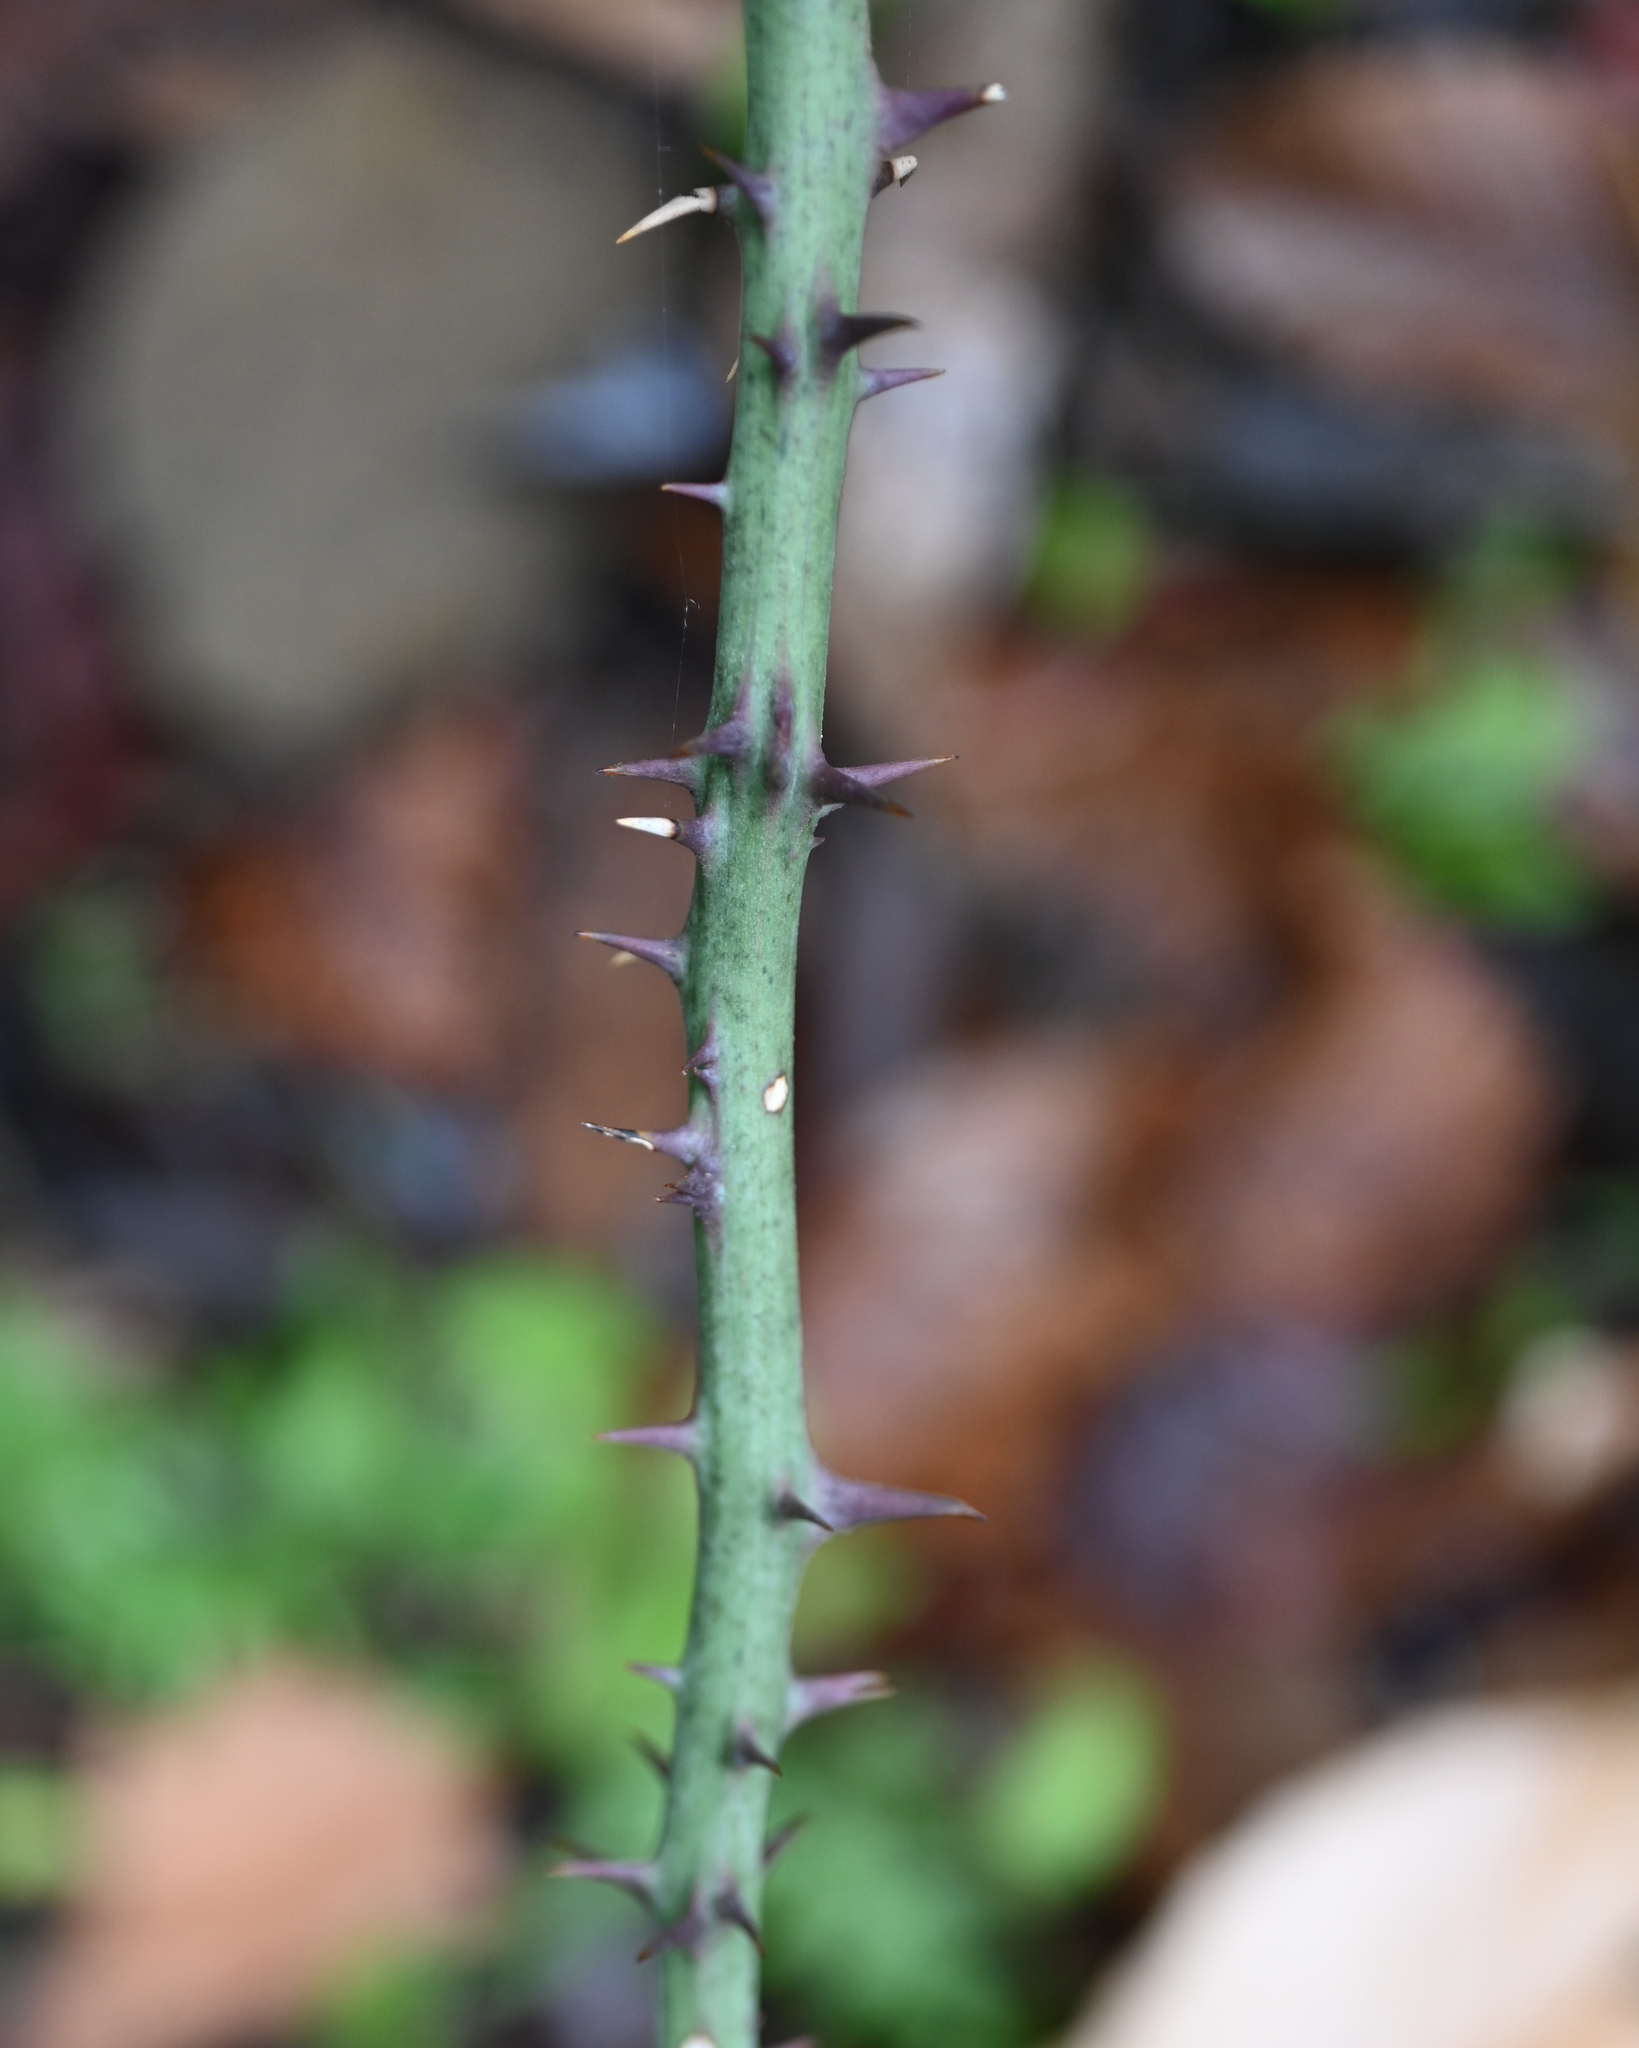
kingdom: Plantae
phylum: Tracheophyta
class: Liliopsida
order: Liliales
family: Smilacaceae
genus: Smilax
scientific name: Smilax maritima
